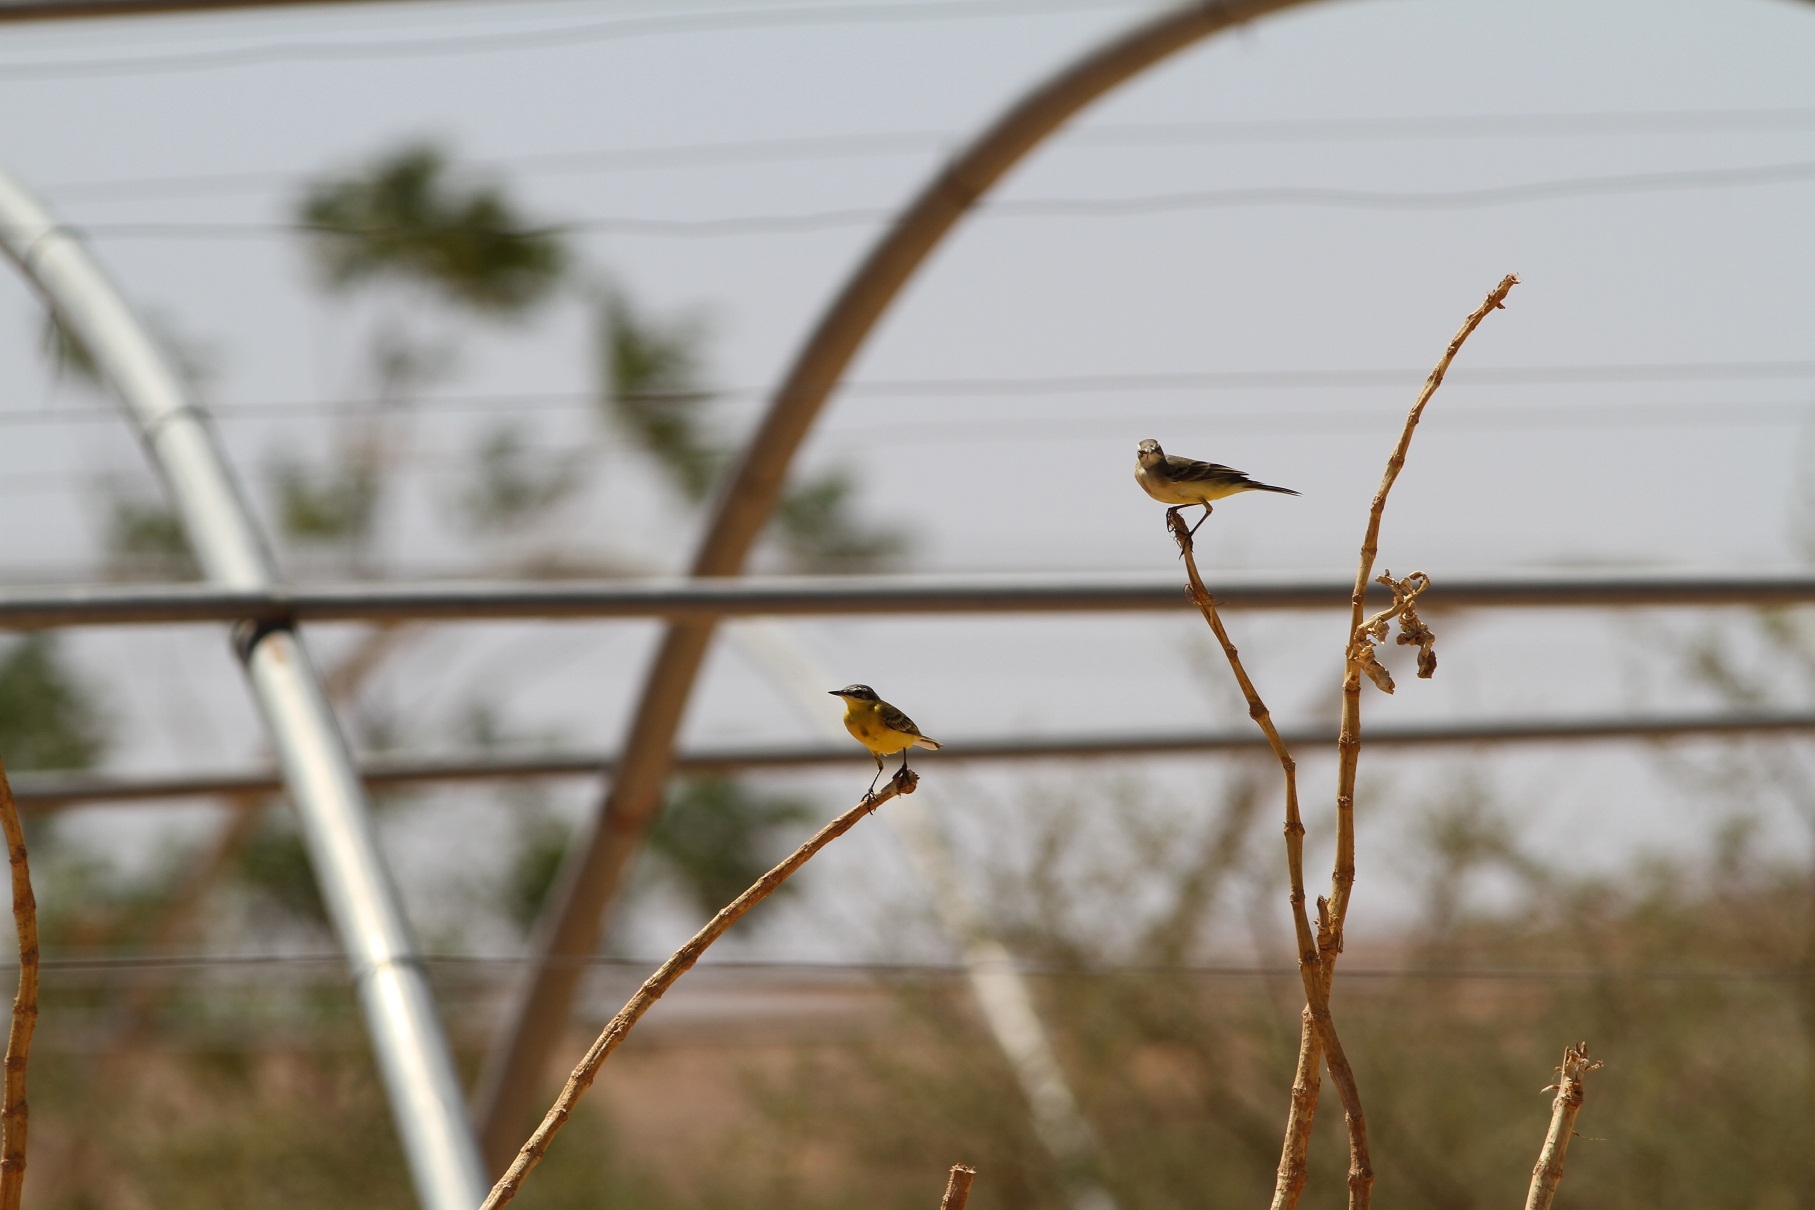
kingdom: Animalia
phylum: Chordata
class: Aves
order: Passeriformes
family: Motacillidae
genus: Motacilla
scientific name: Motacilla flava
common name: Western yellow wagtail
